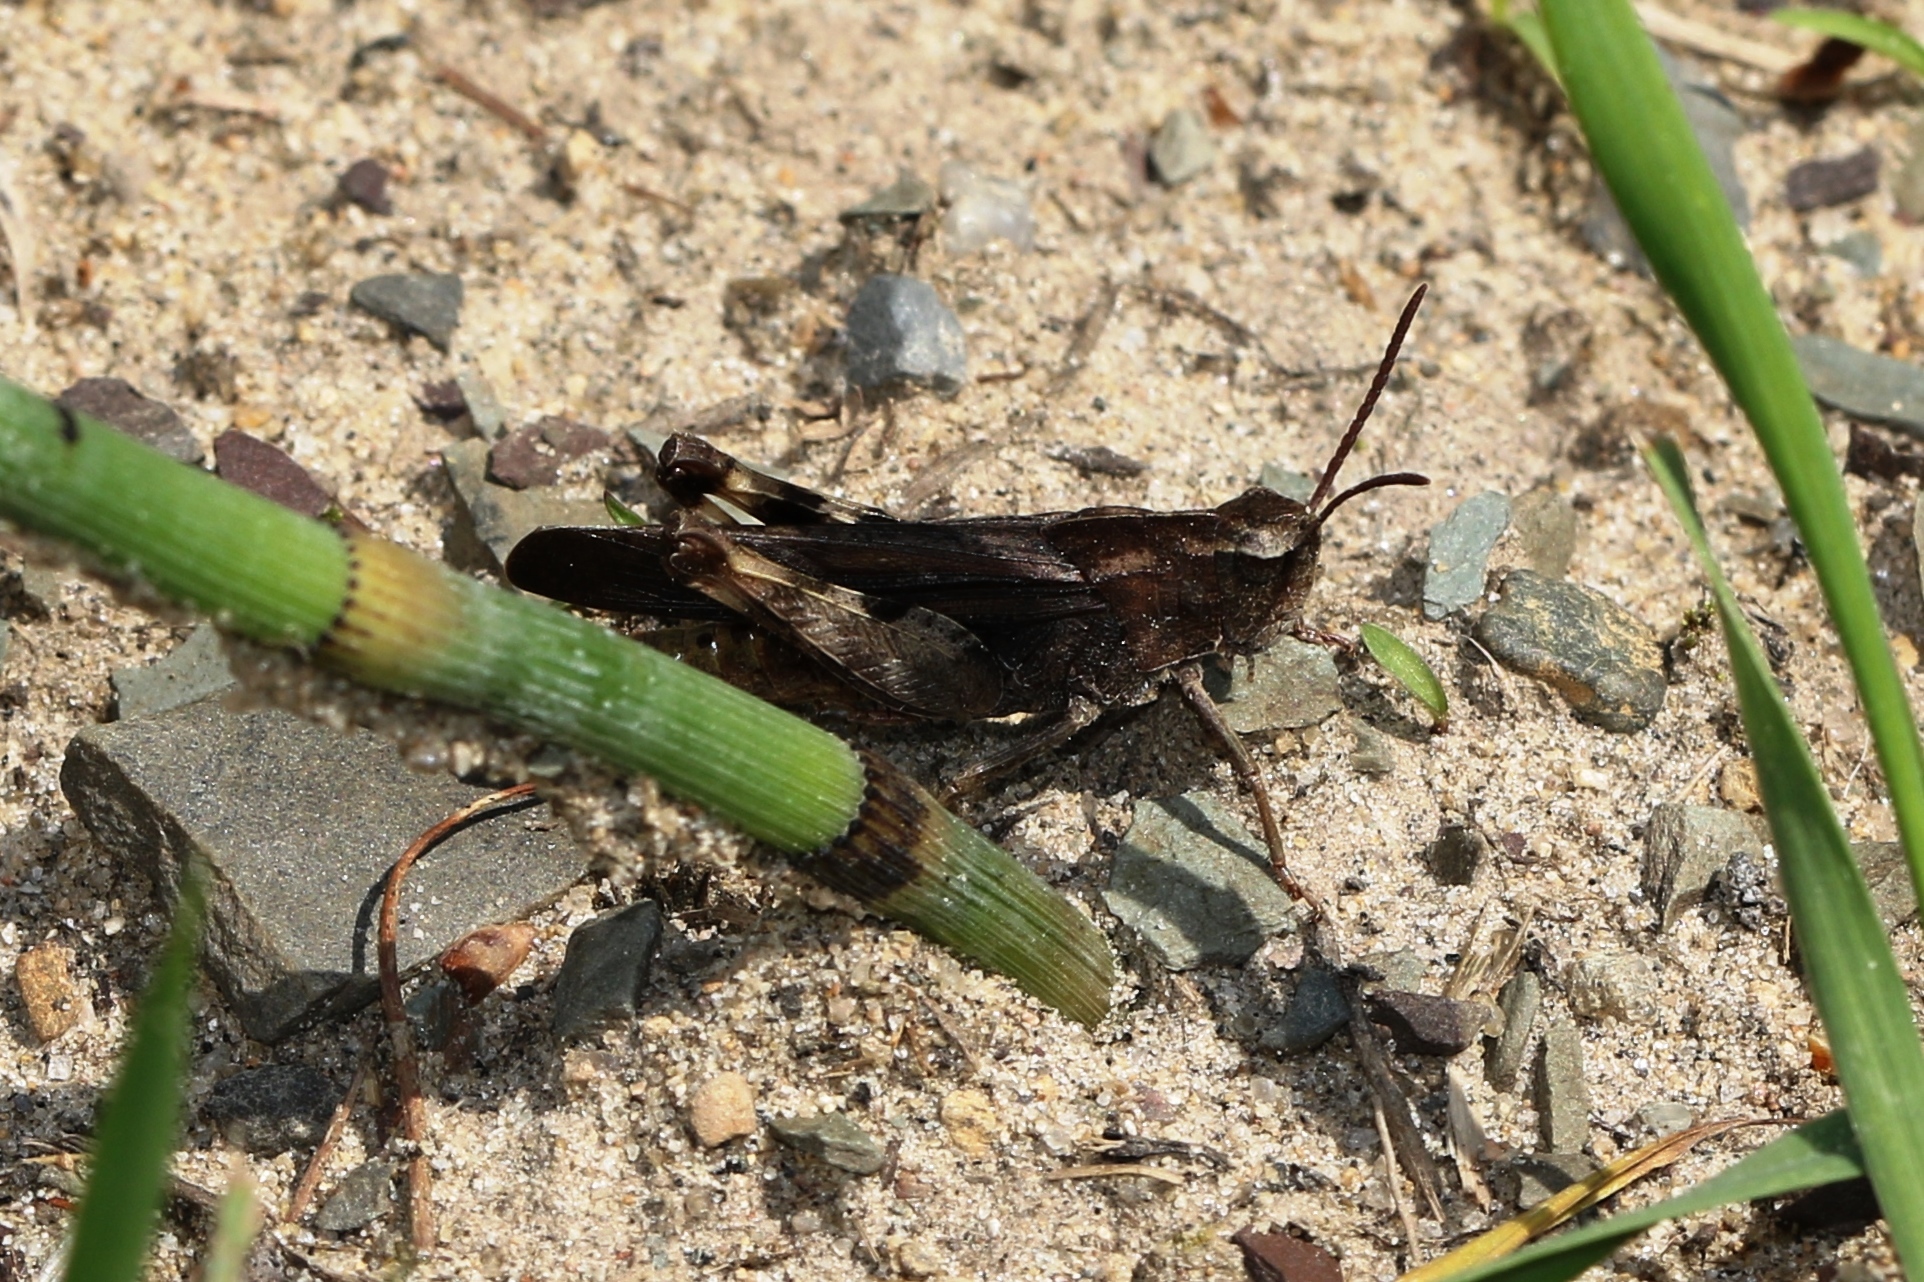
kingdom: Animalia
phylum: Arthropoda
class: Insecta
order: Orthoptera
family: Acrididae
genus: Chortophaga
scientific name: Chortophaga viridifasciata
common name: Green-striped grasshopper
